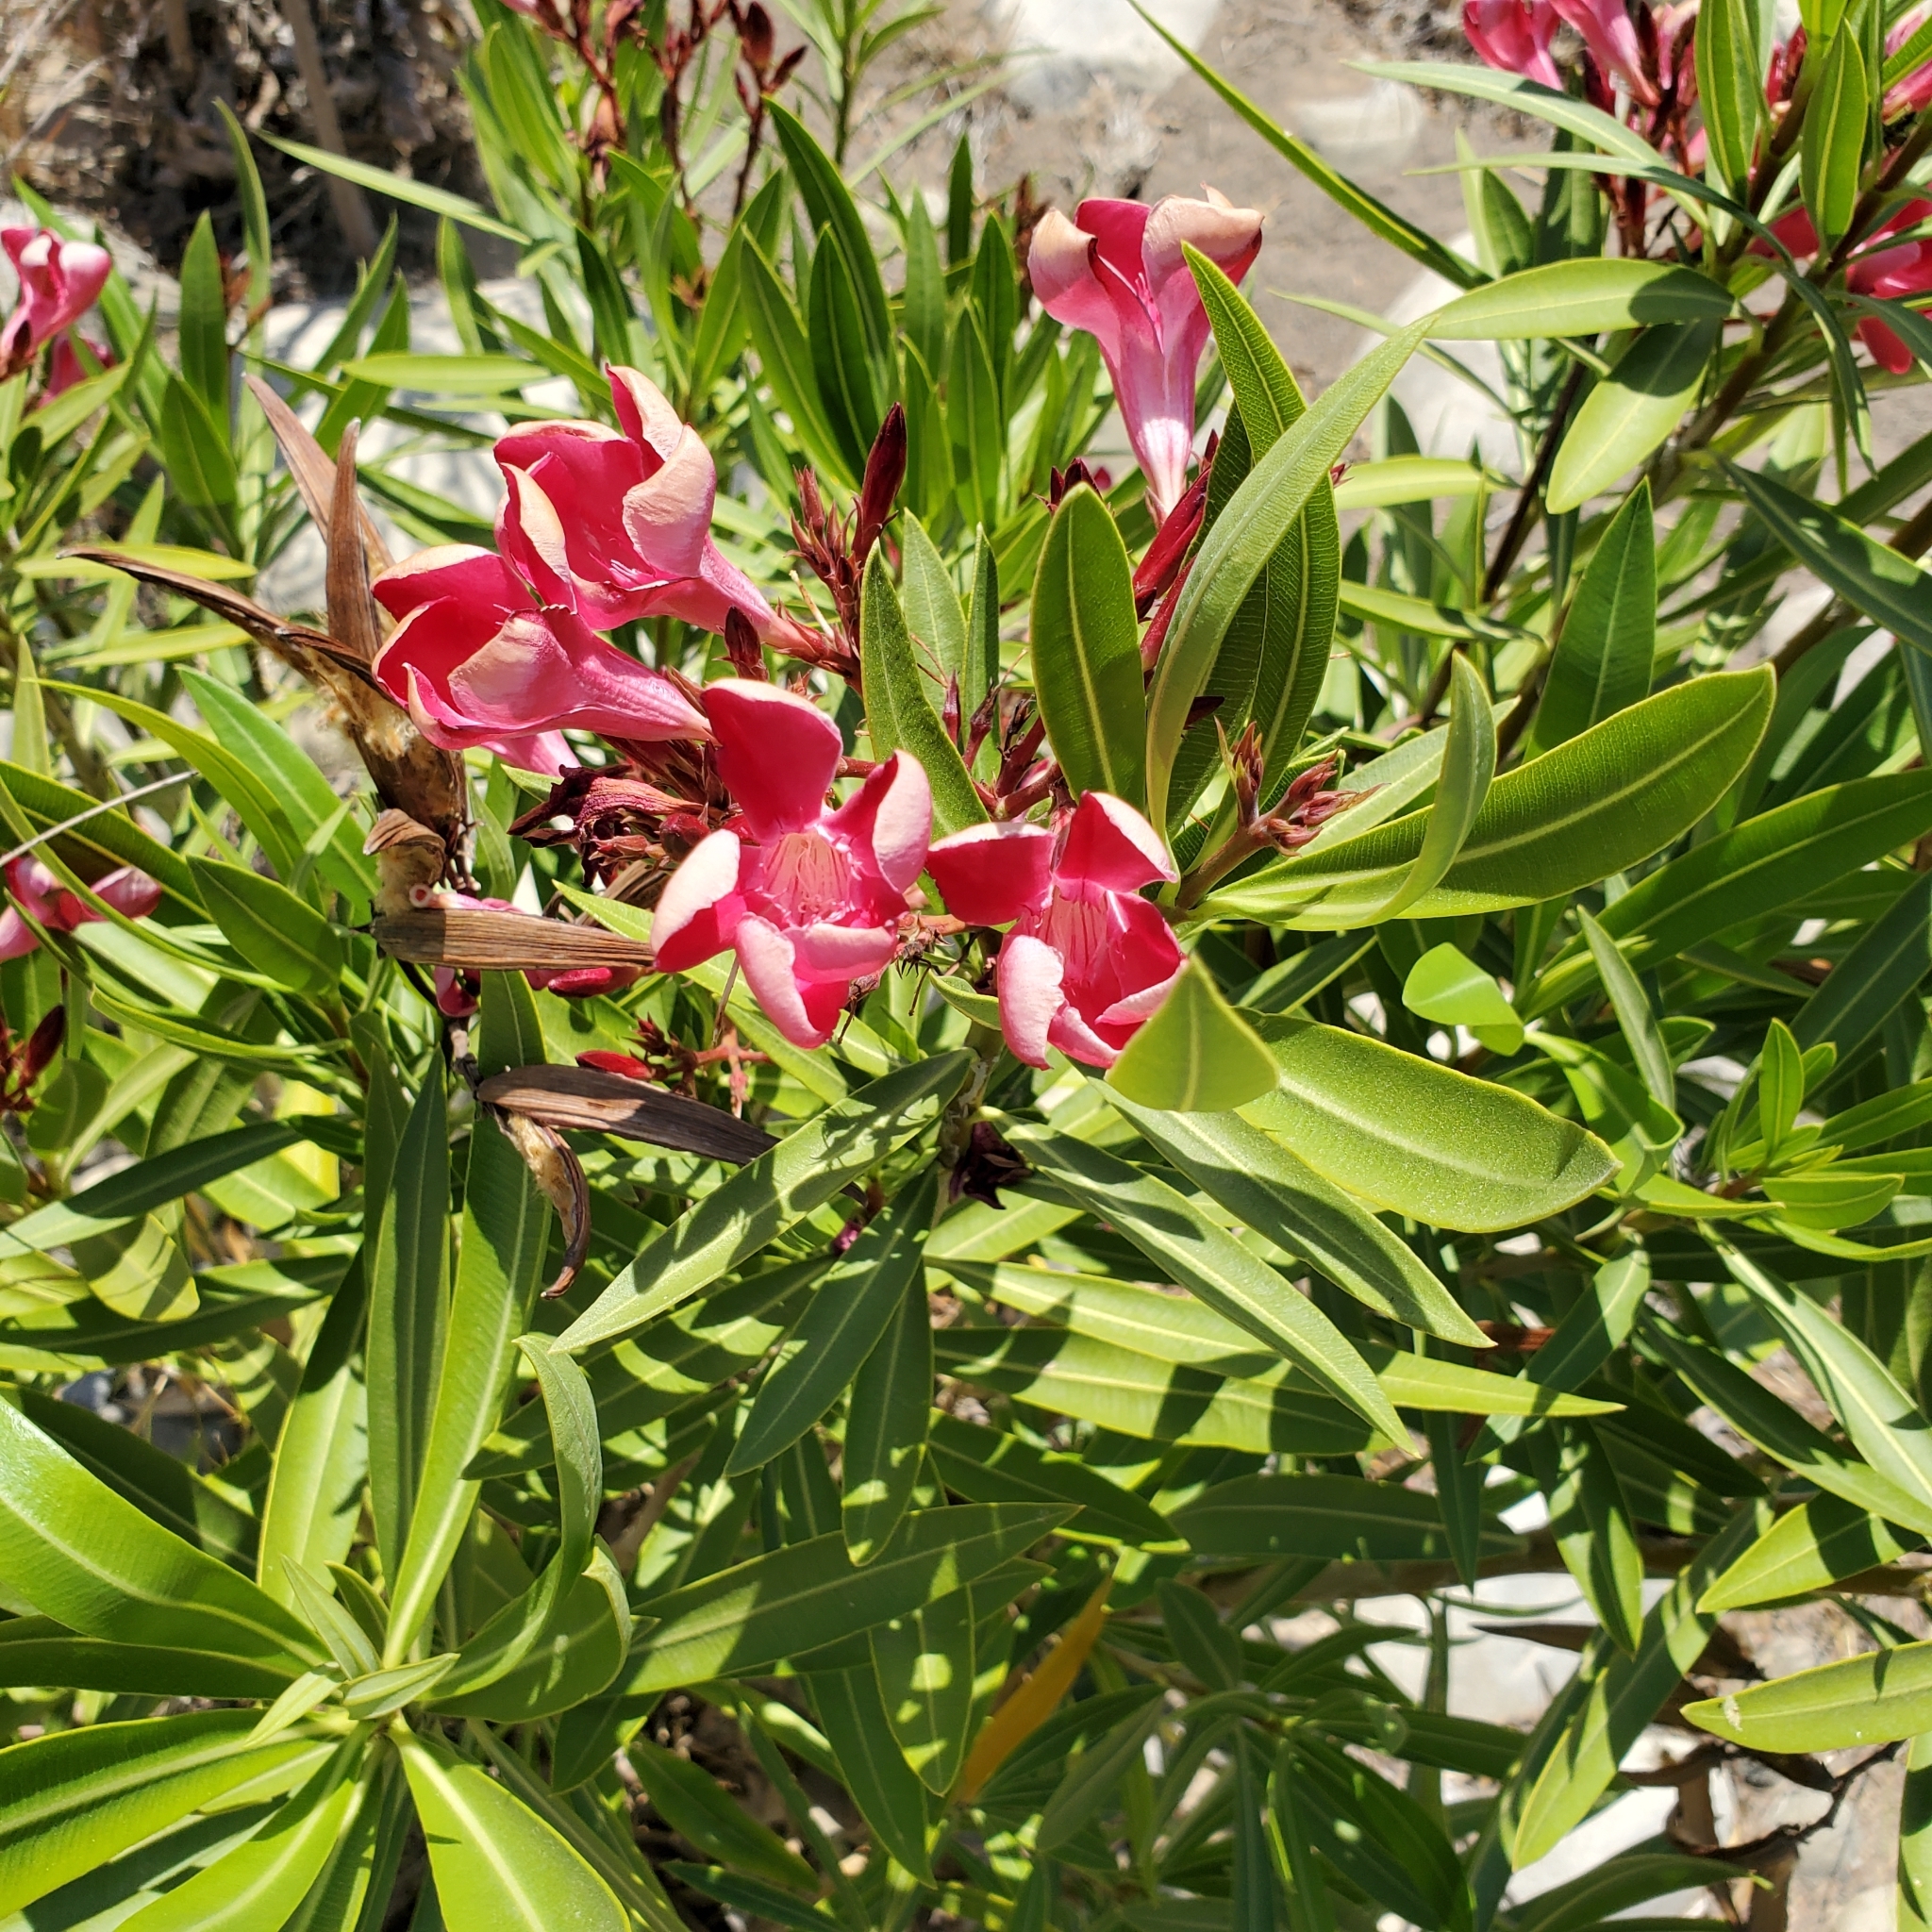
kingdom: Plantae
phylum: Tracheophyta
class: Magnoliopsida
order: Gentianales
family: Apocynaceae
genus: Nerium
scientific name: Nerium oleander
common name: Oleander
